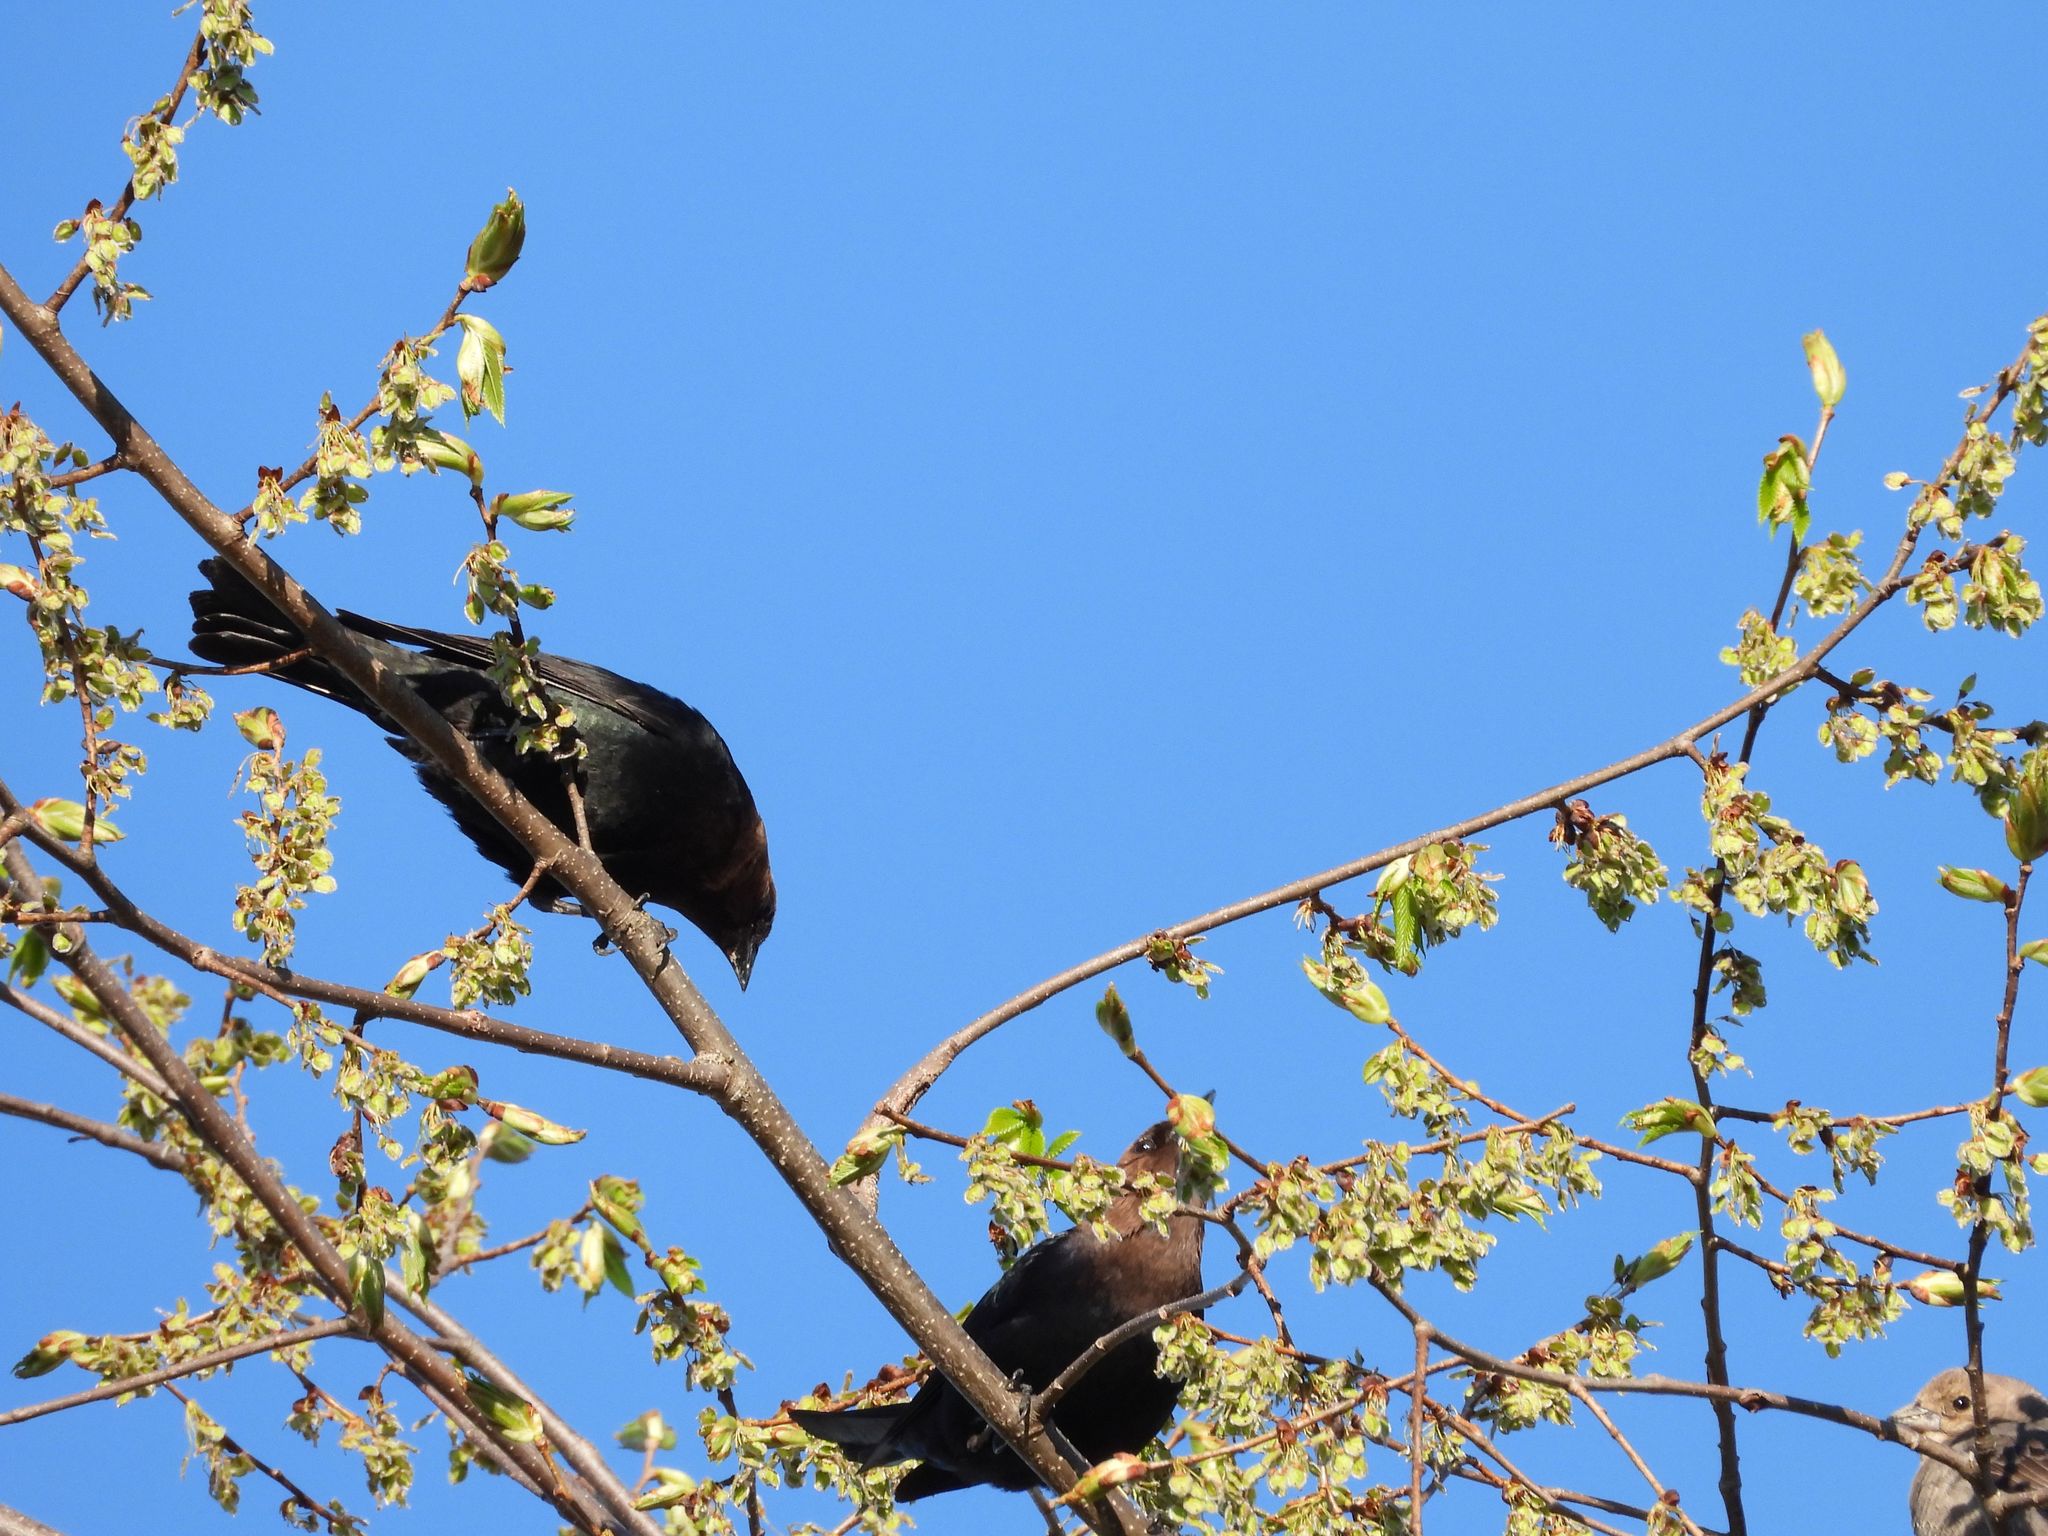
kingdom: Animalia
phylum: Chordata
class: Aves
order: Passeriformes
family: Icteridae
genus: Molothrus
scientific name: Molothrus ater
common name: Brown-headed cowbird
